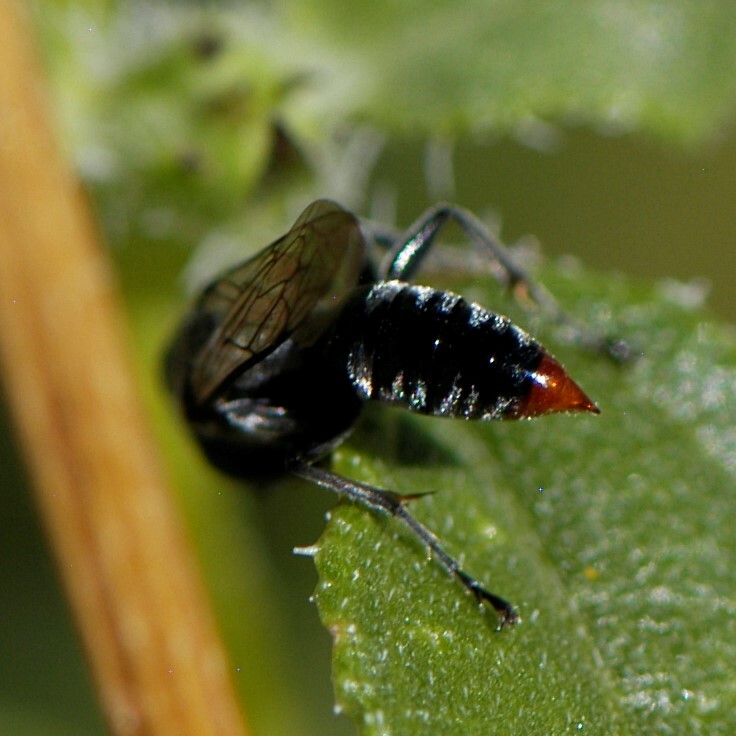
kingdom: Animalia
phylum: Arthropoda
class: Insecta
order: Hymenoptera
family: Crabronidae
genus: Tachysphex
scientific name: Tachysphex
